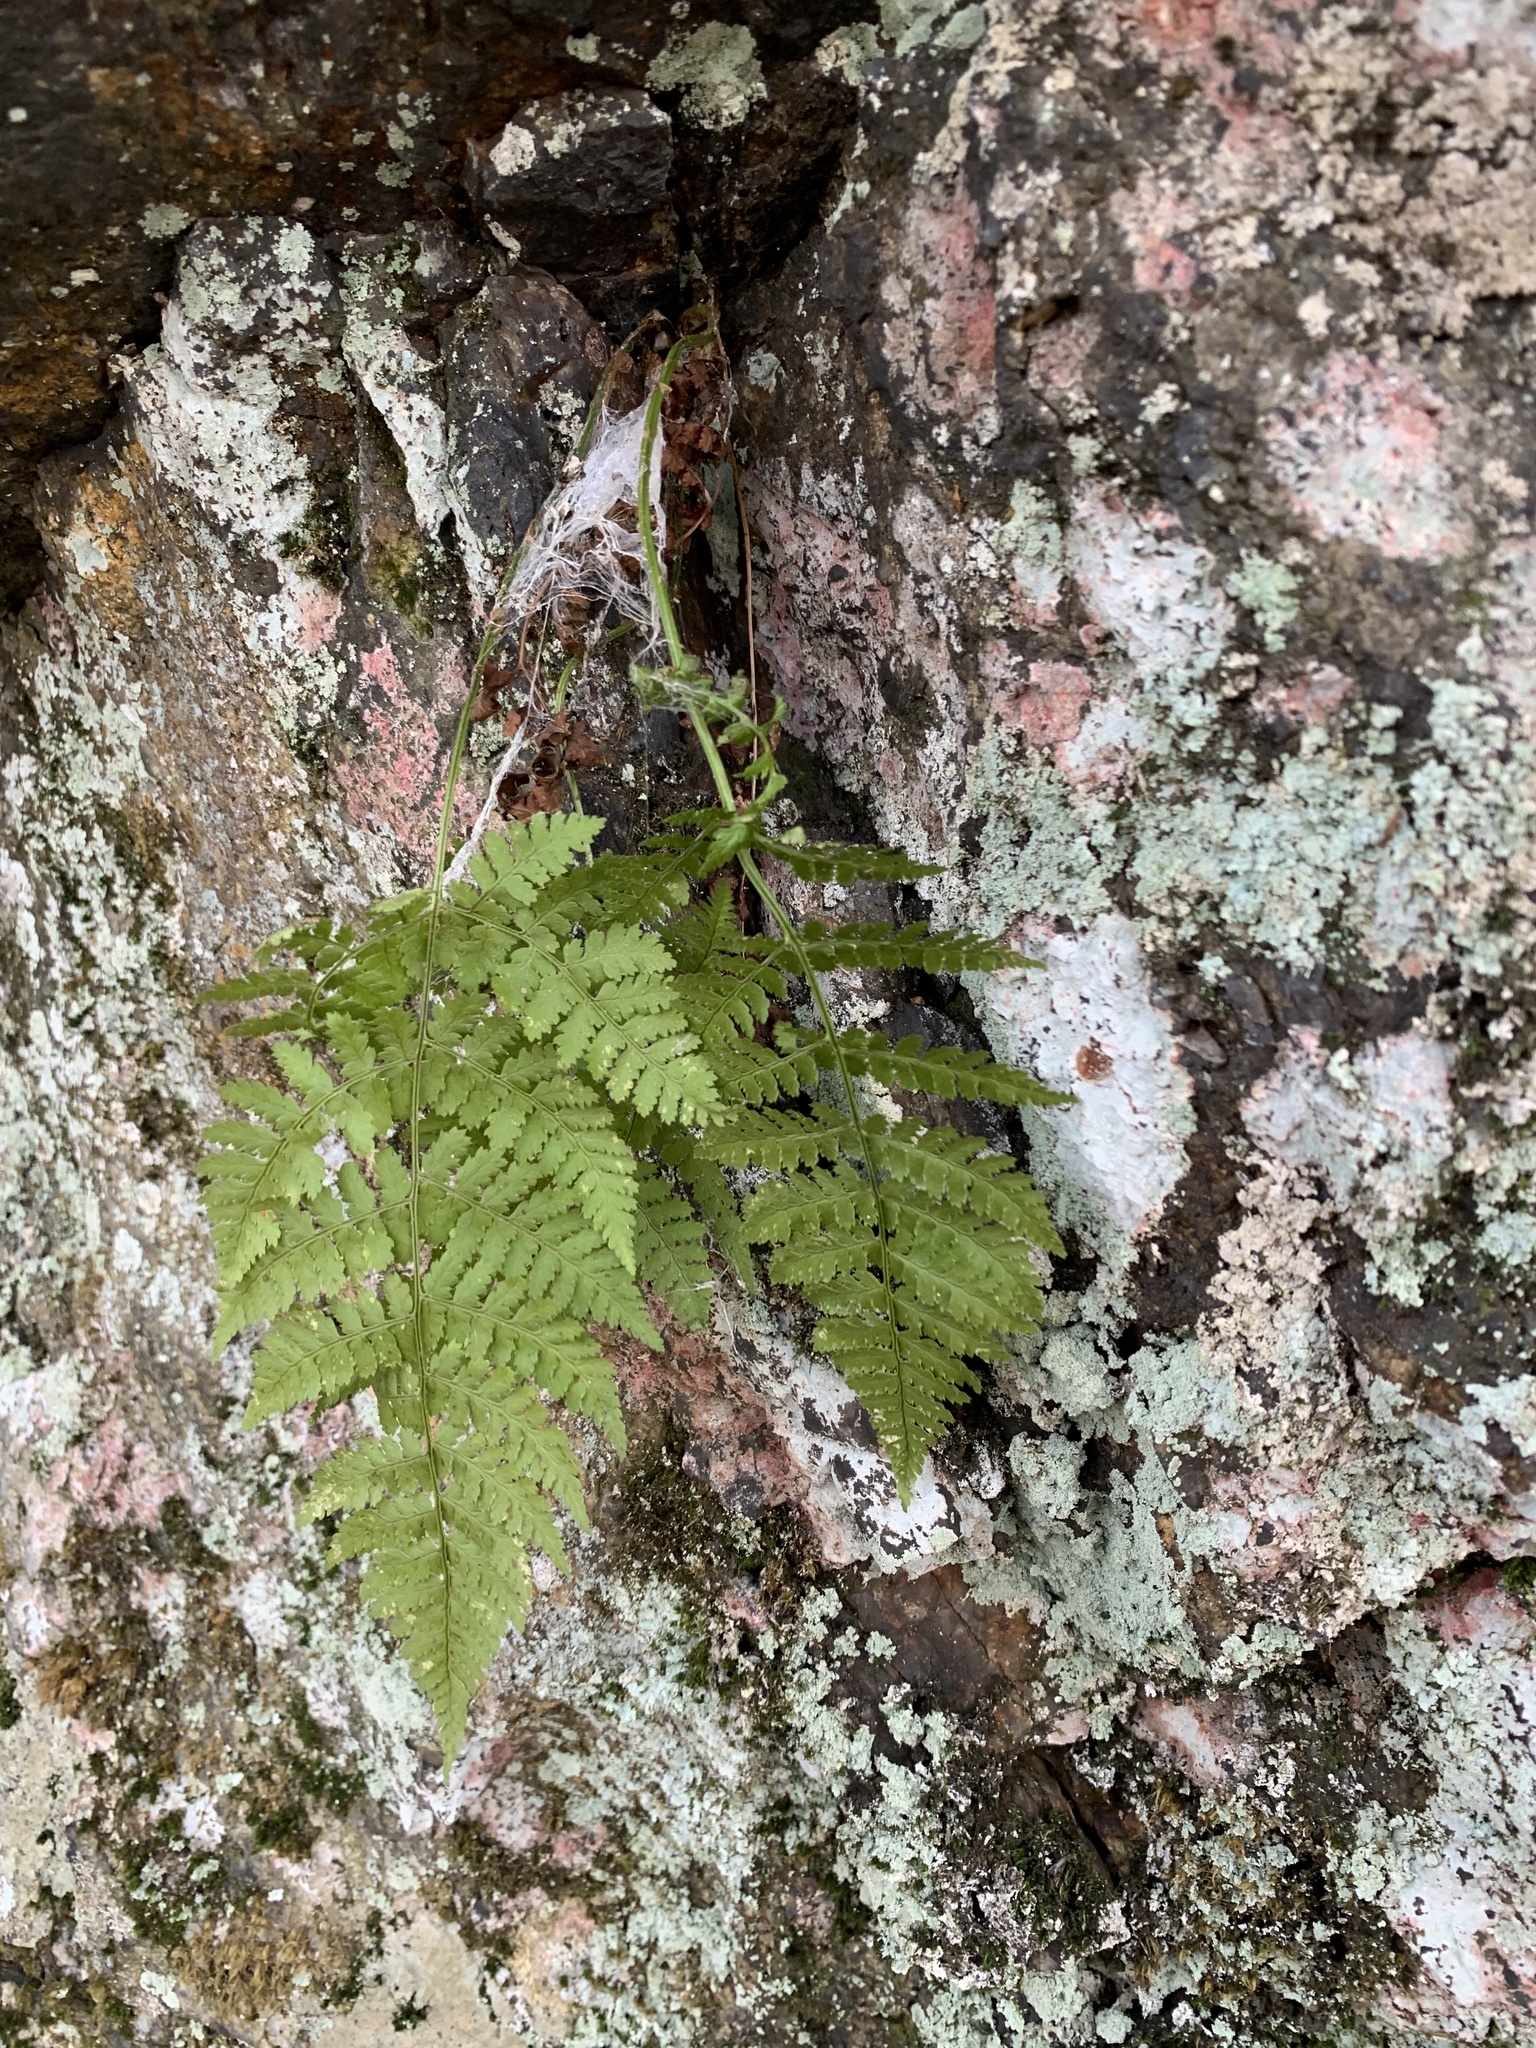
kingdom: Plantae
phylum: Tracheophyta
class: Polypodiopsida
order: Polypodiales
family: Dryopteridaceae
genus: Dryopteris
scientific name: Dryopteris intermedia
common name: Evergreen wood fern
